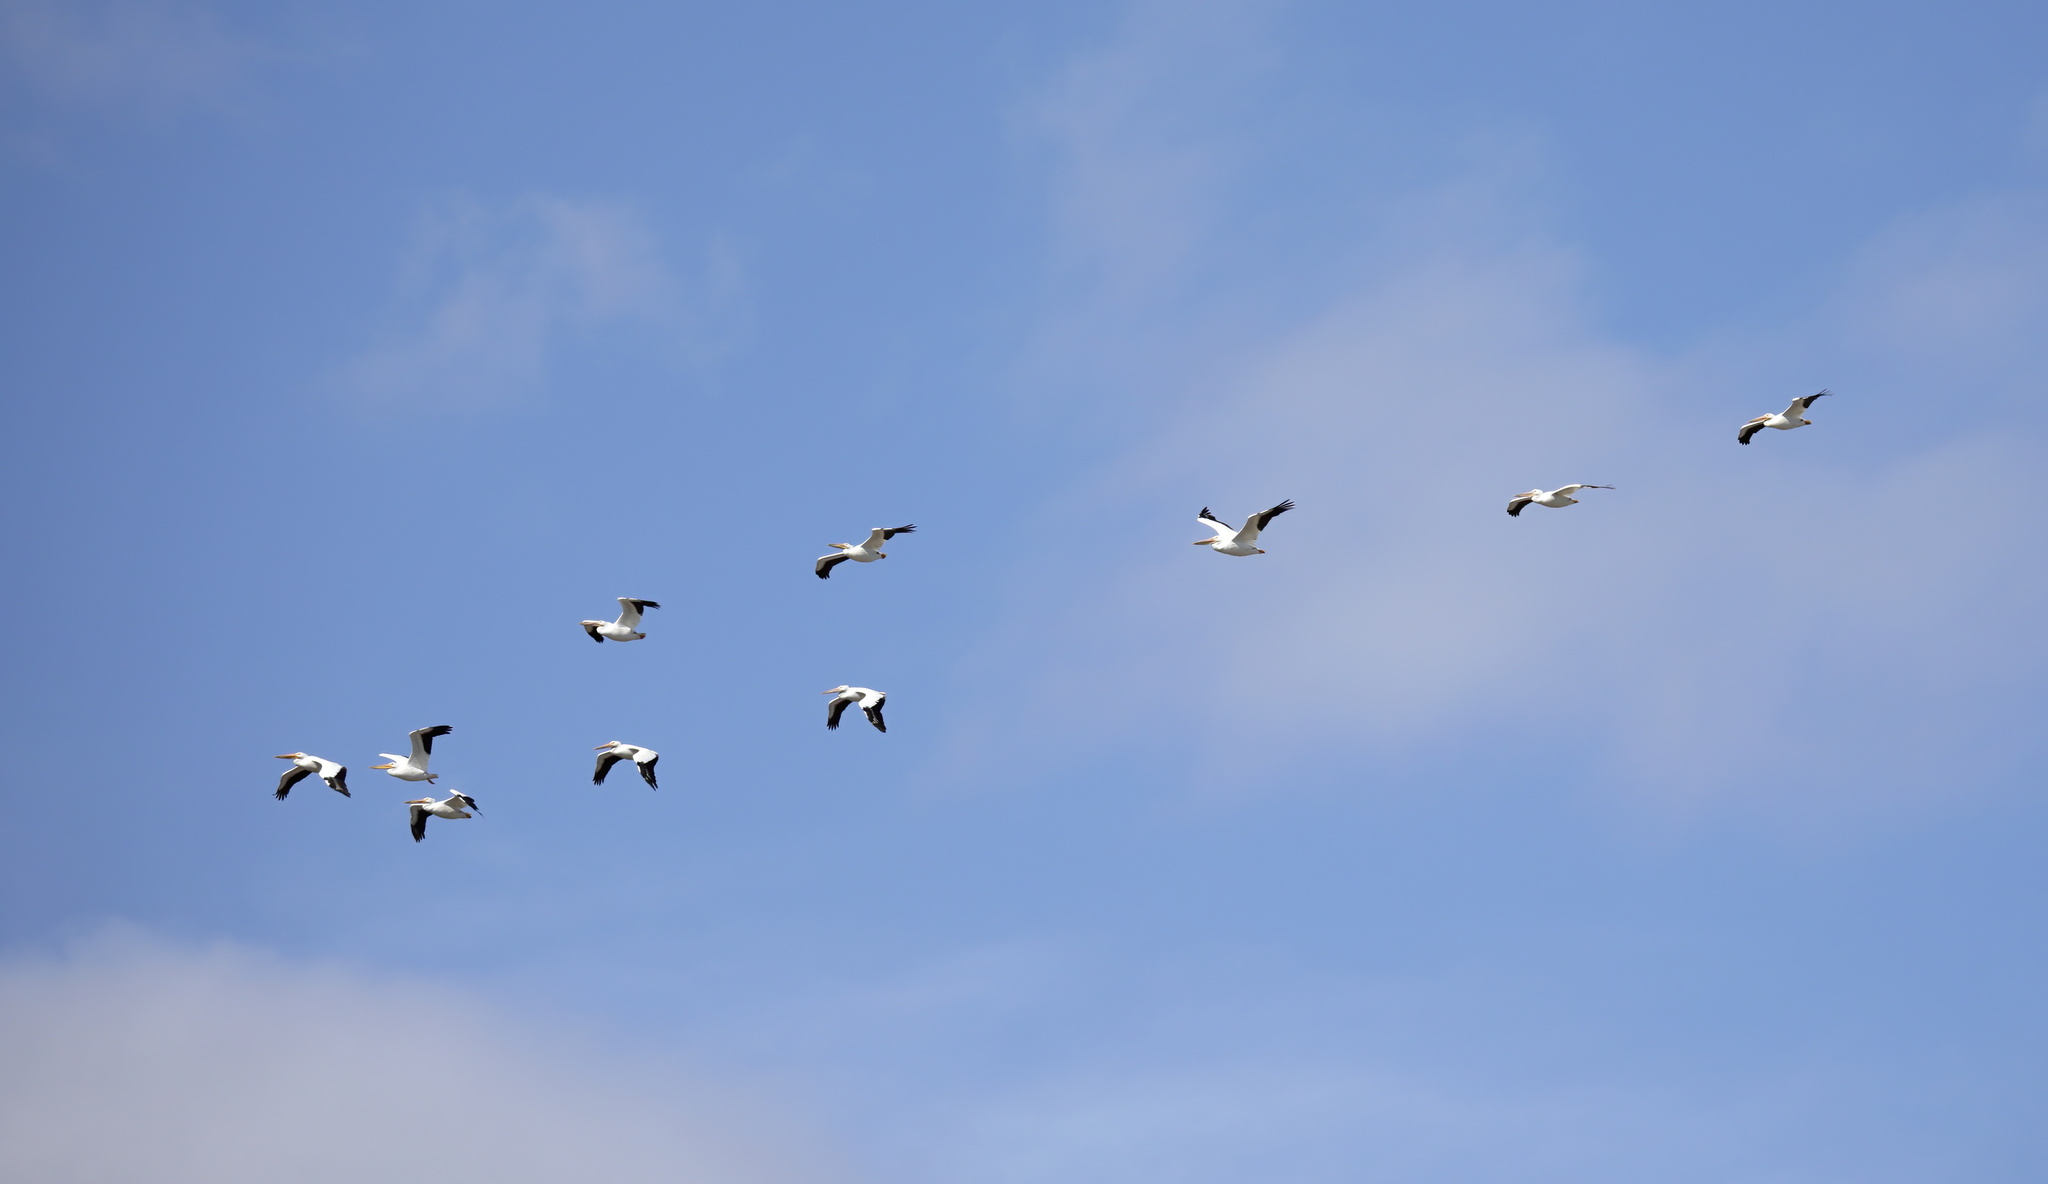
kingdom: Animalia
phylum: Chordata
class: Aves
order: Pelecaniformes
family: Pelecanidae
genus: Pelecanus
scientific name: Pelecanus erythrorhynchos
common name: American white pelican
